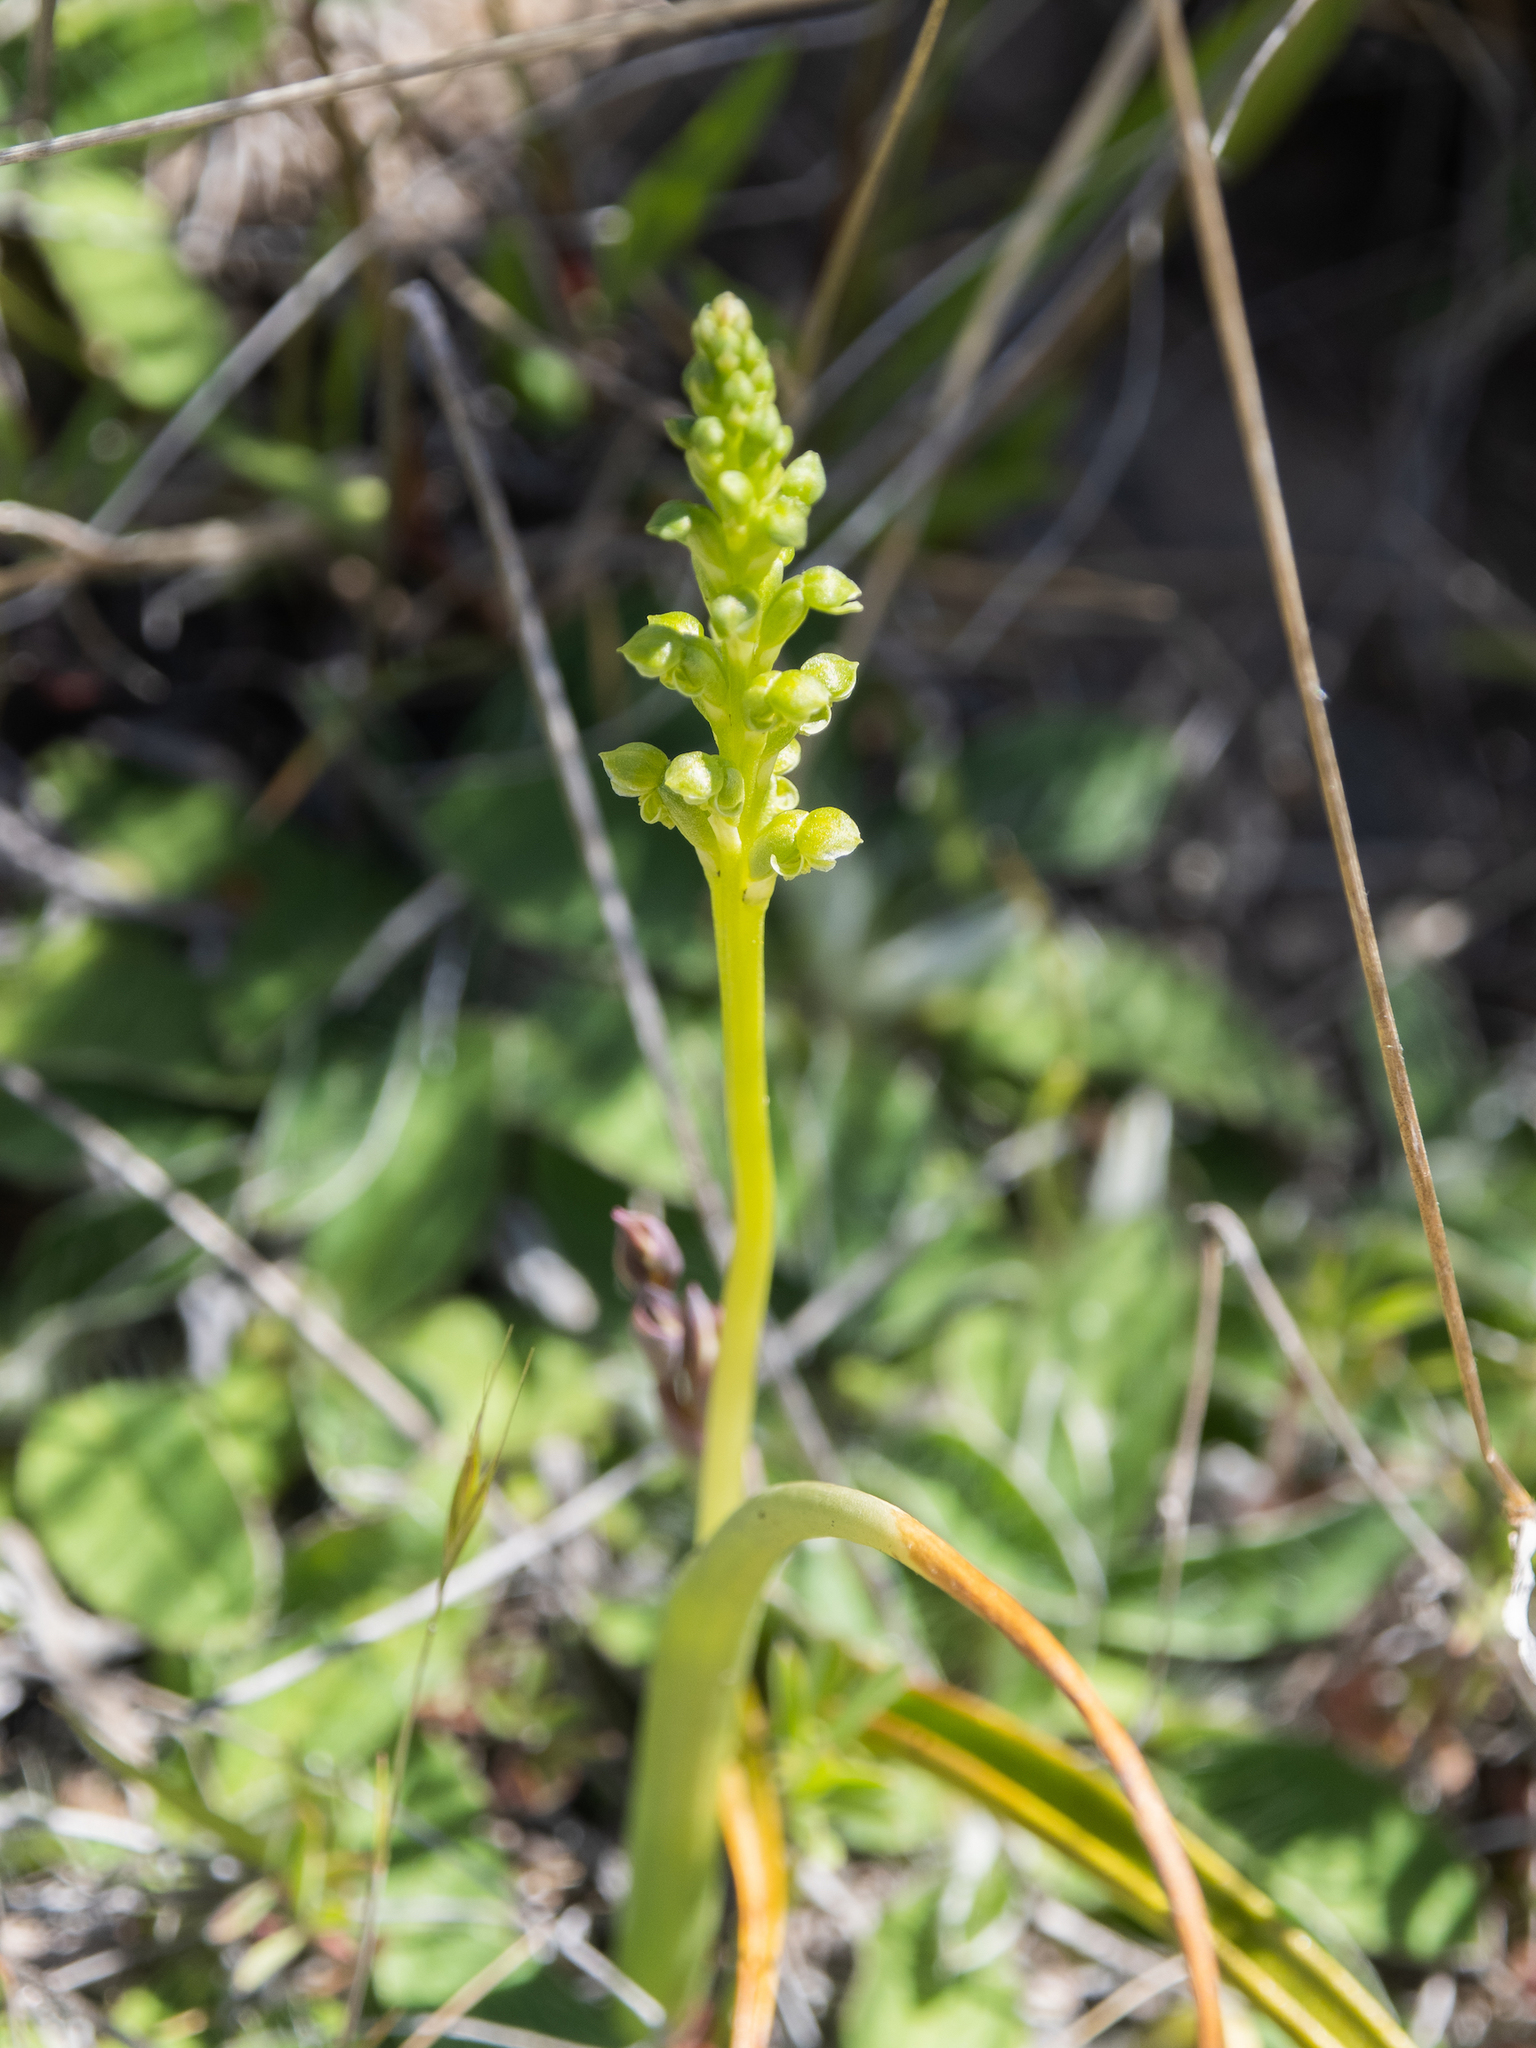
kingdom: Plantae
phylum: Tracheophyta
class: Liliopsida
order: Asparagales
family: Orchidaceae
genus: Microtis
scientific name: Microtis unifolia
